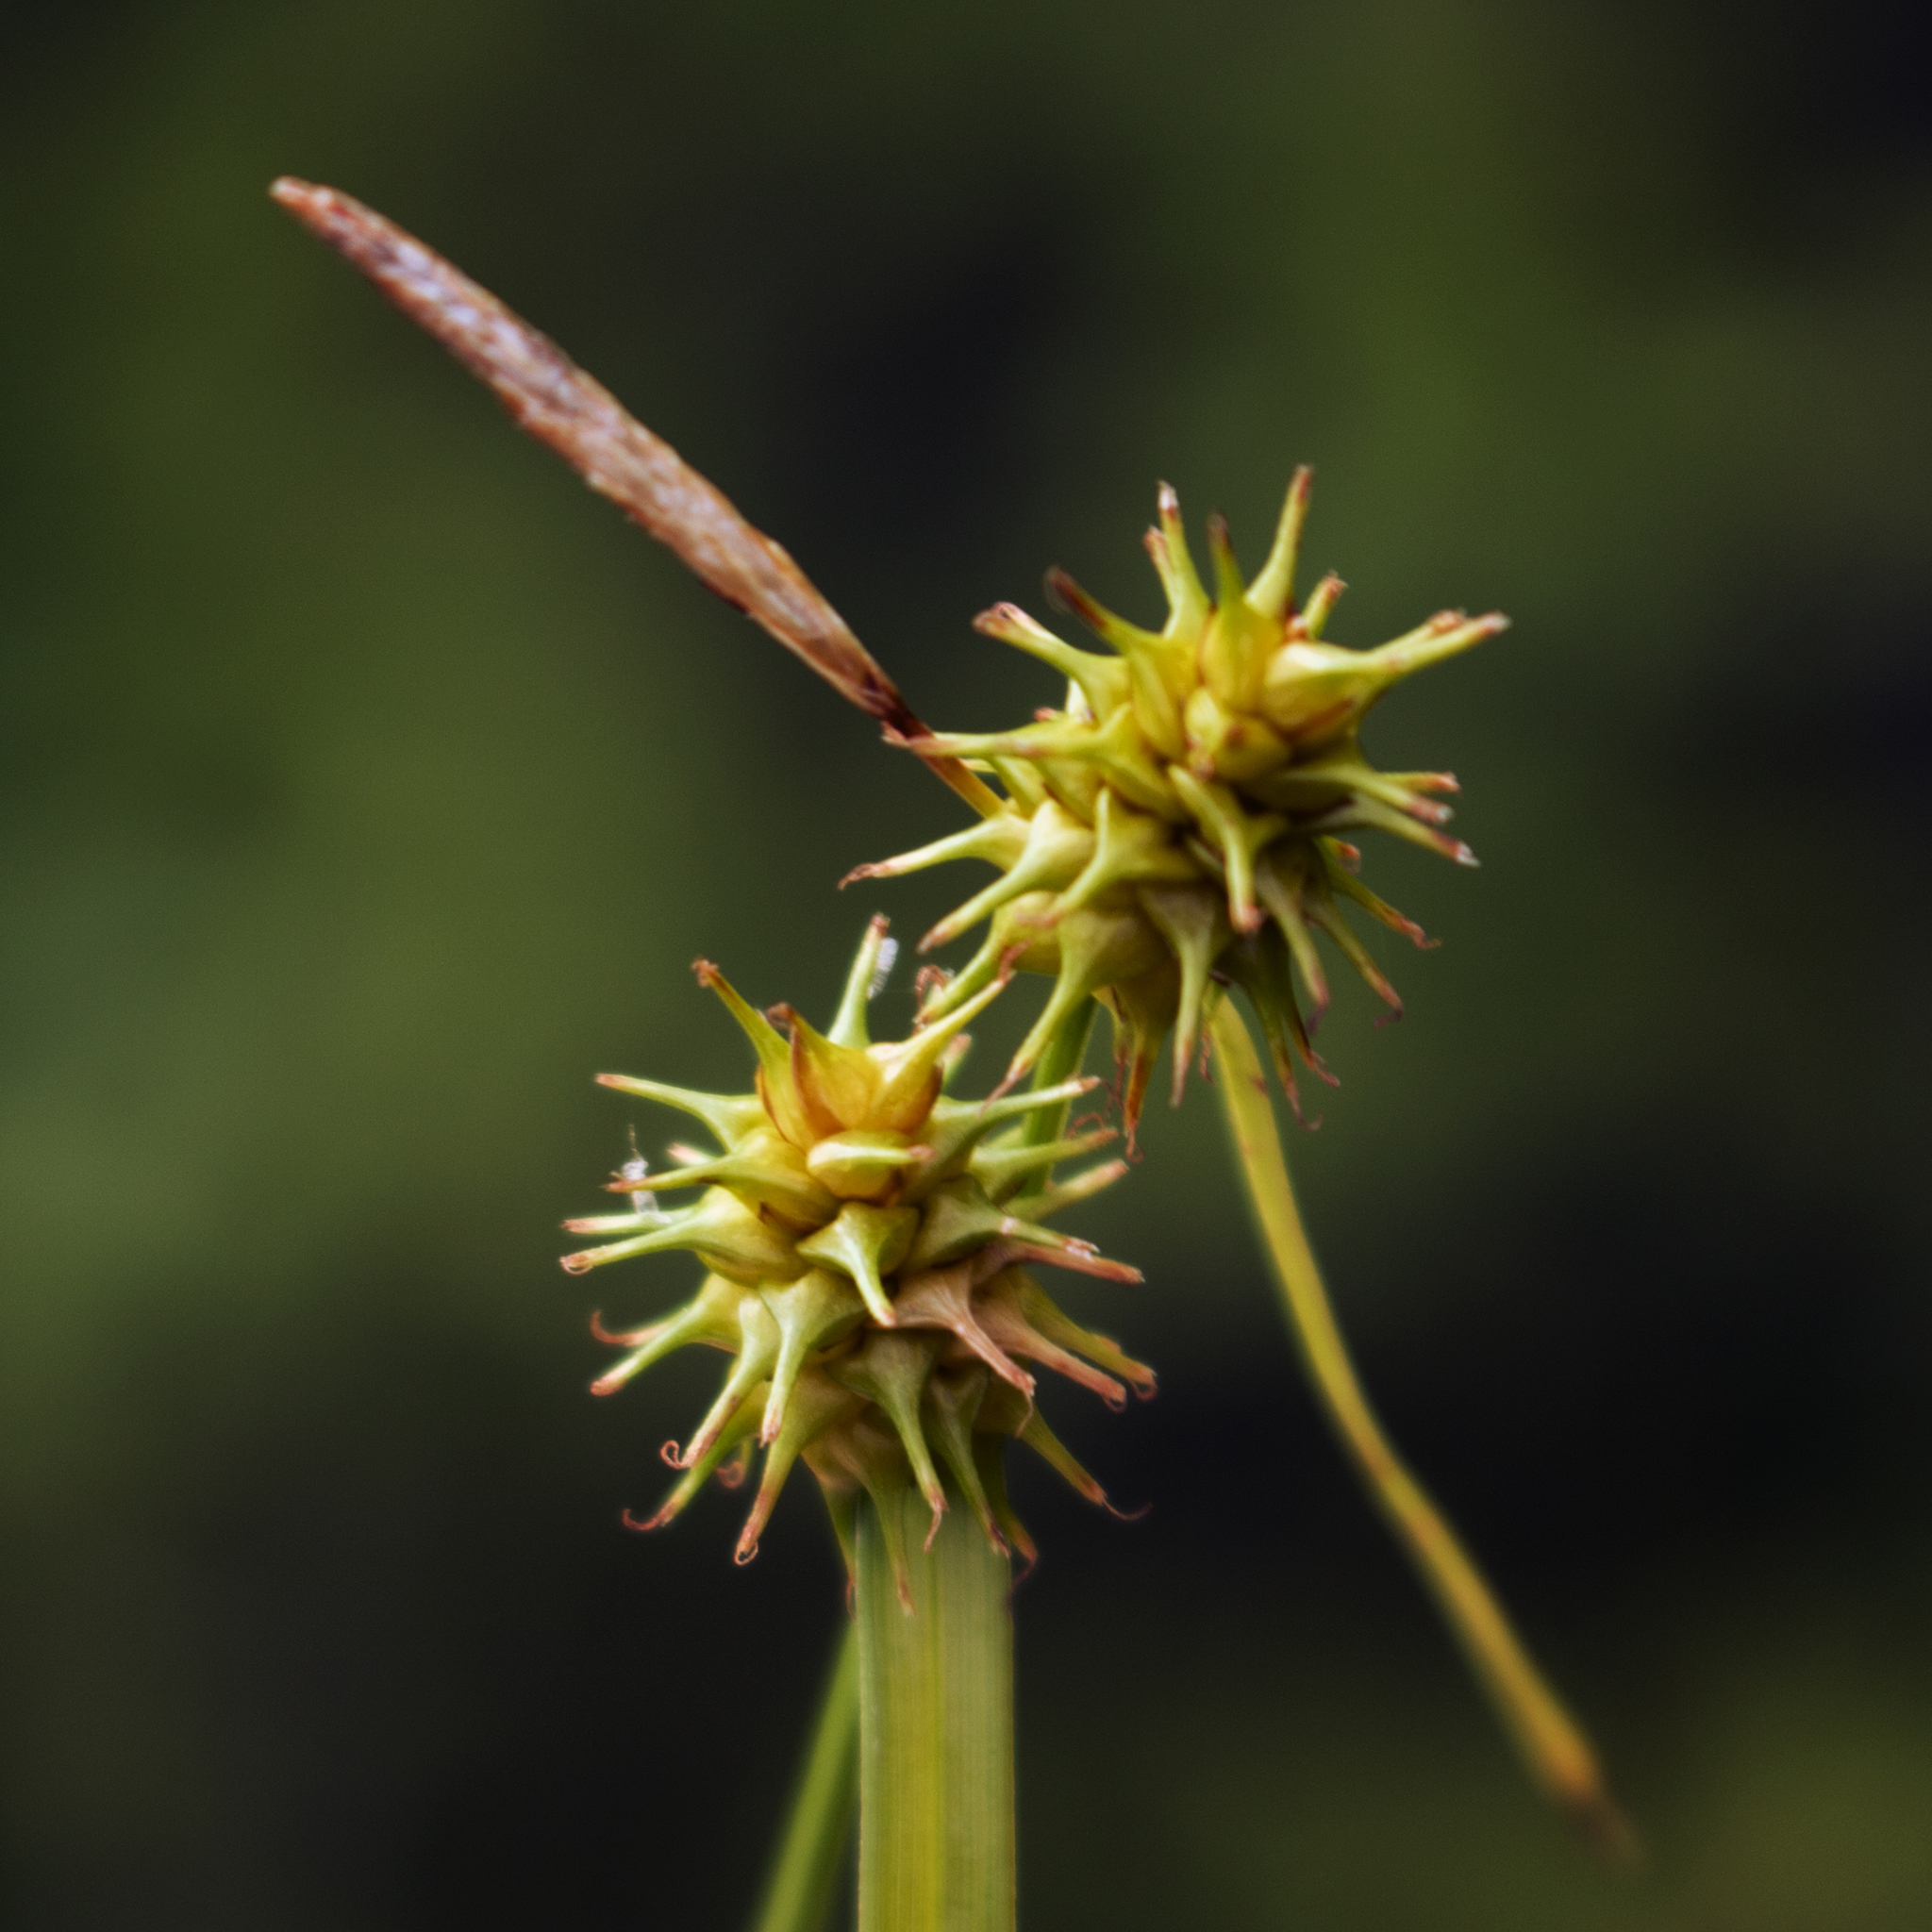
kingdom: Plantae
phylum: Tracheophyta
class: Liliopsida
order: Poales
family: Cyperaceae
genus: Carex
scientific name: Carex flava
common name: Large yellow-sedge
